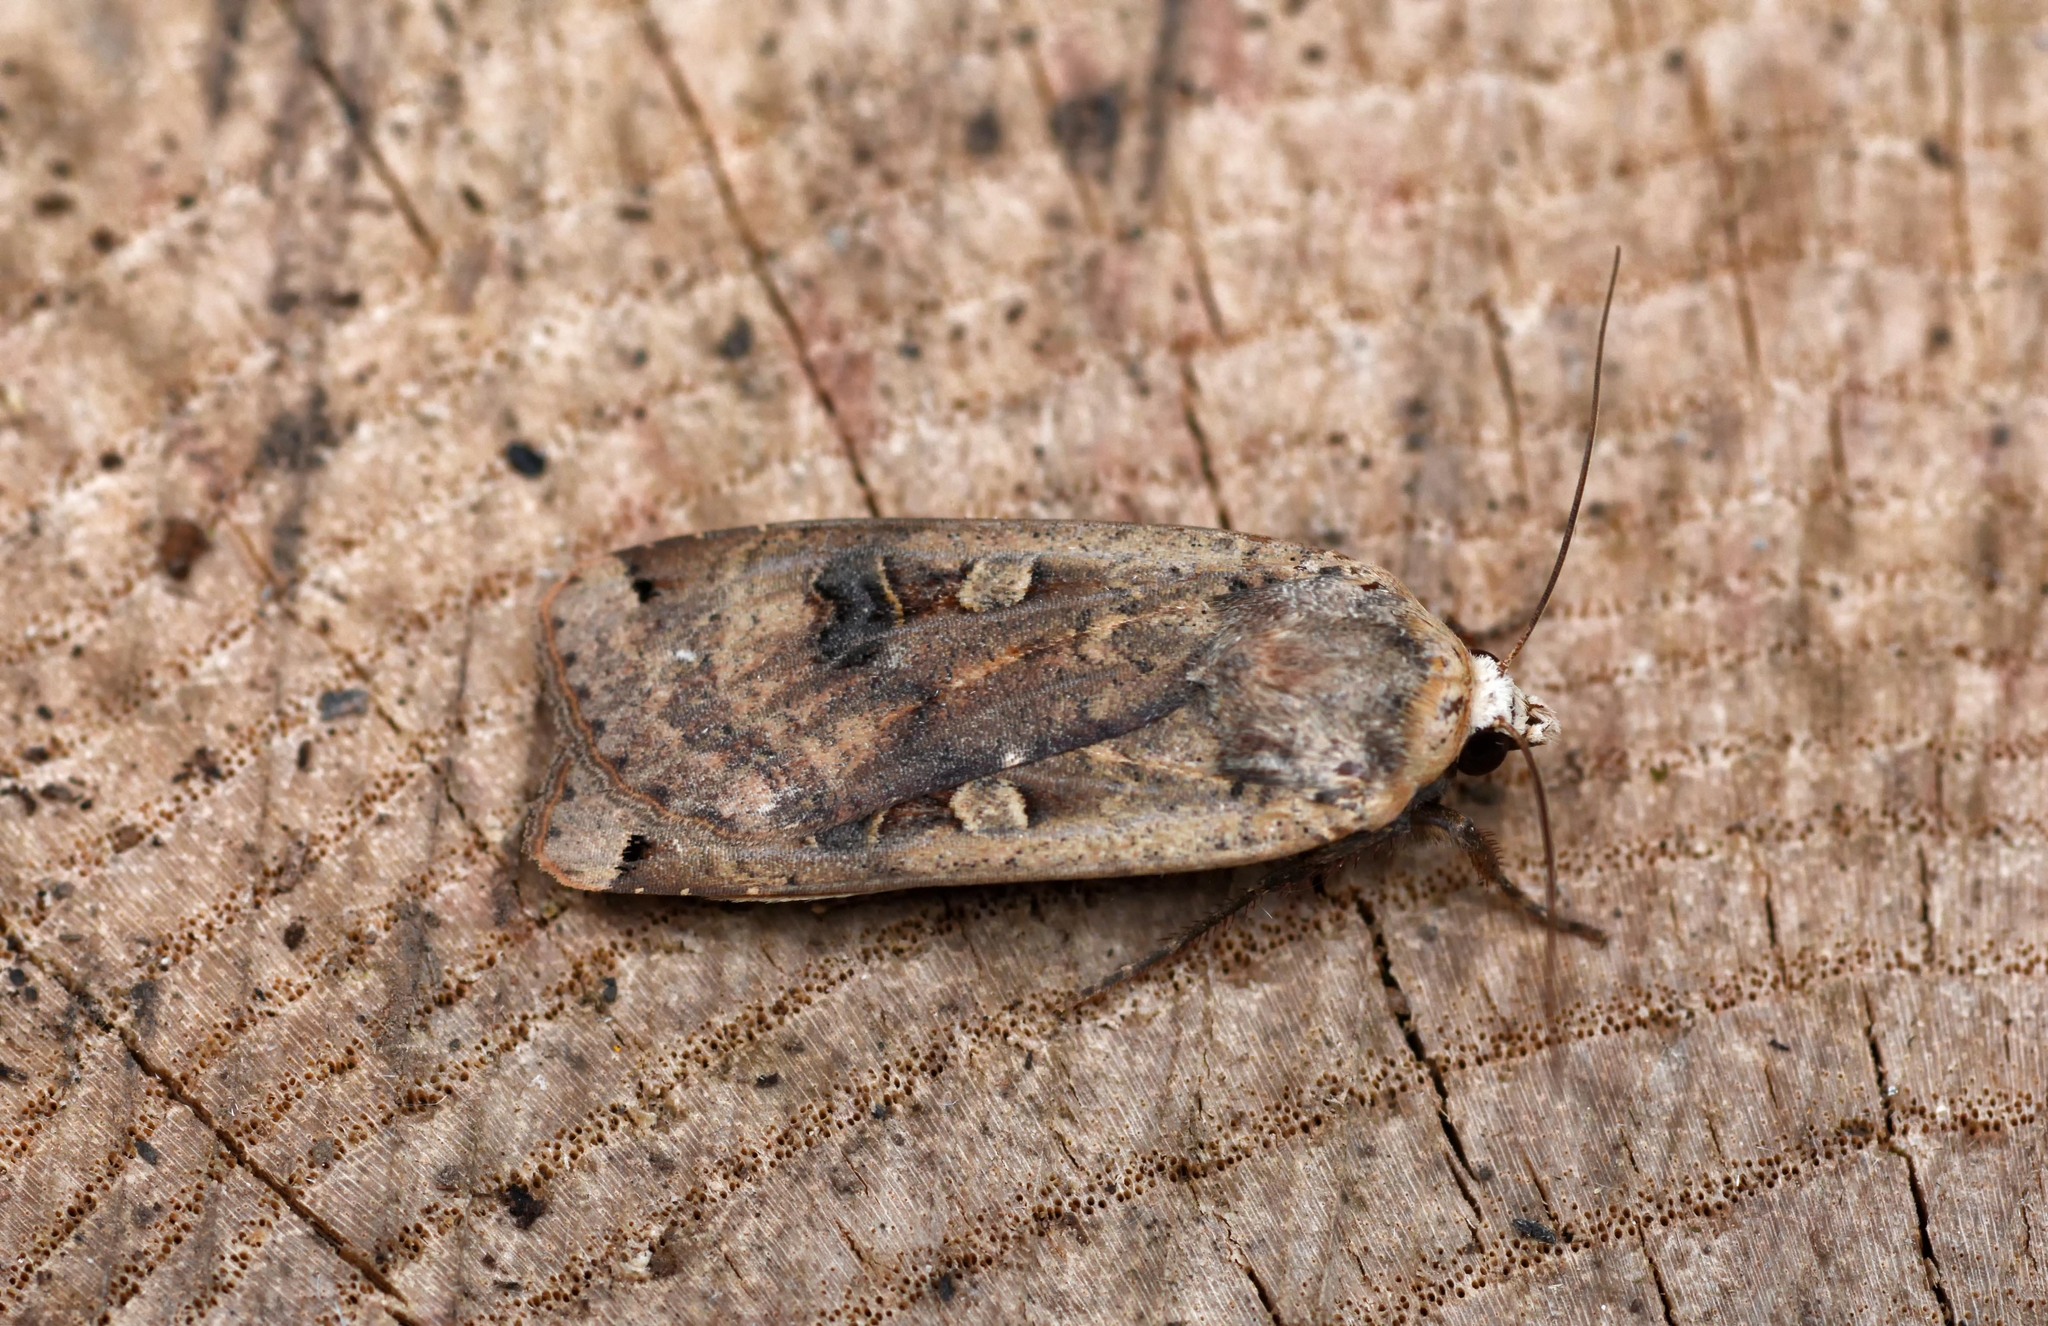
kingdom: Animalia
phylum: Arthropoda
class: Insecta
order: Lepidoptera
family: Noctuidae
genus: Noctua
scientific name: Noctua pronuba
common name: Large yellow underwing
